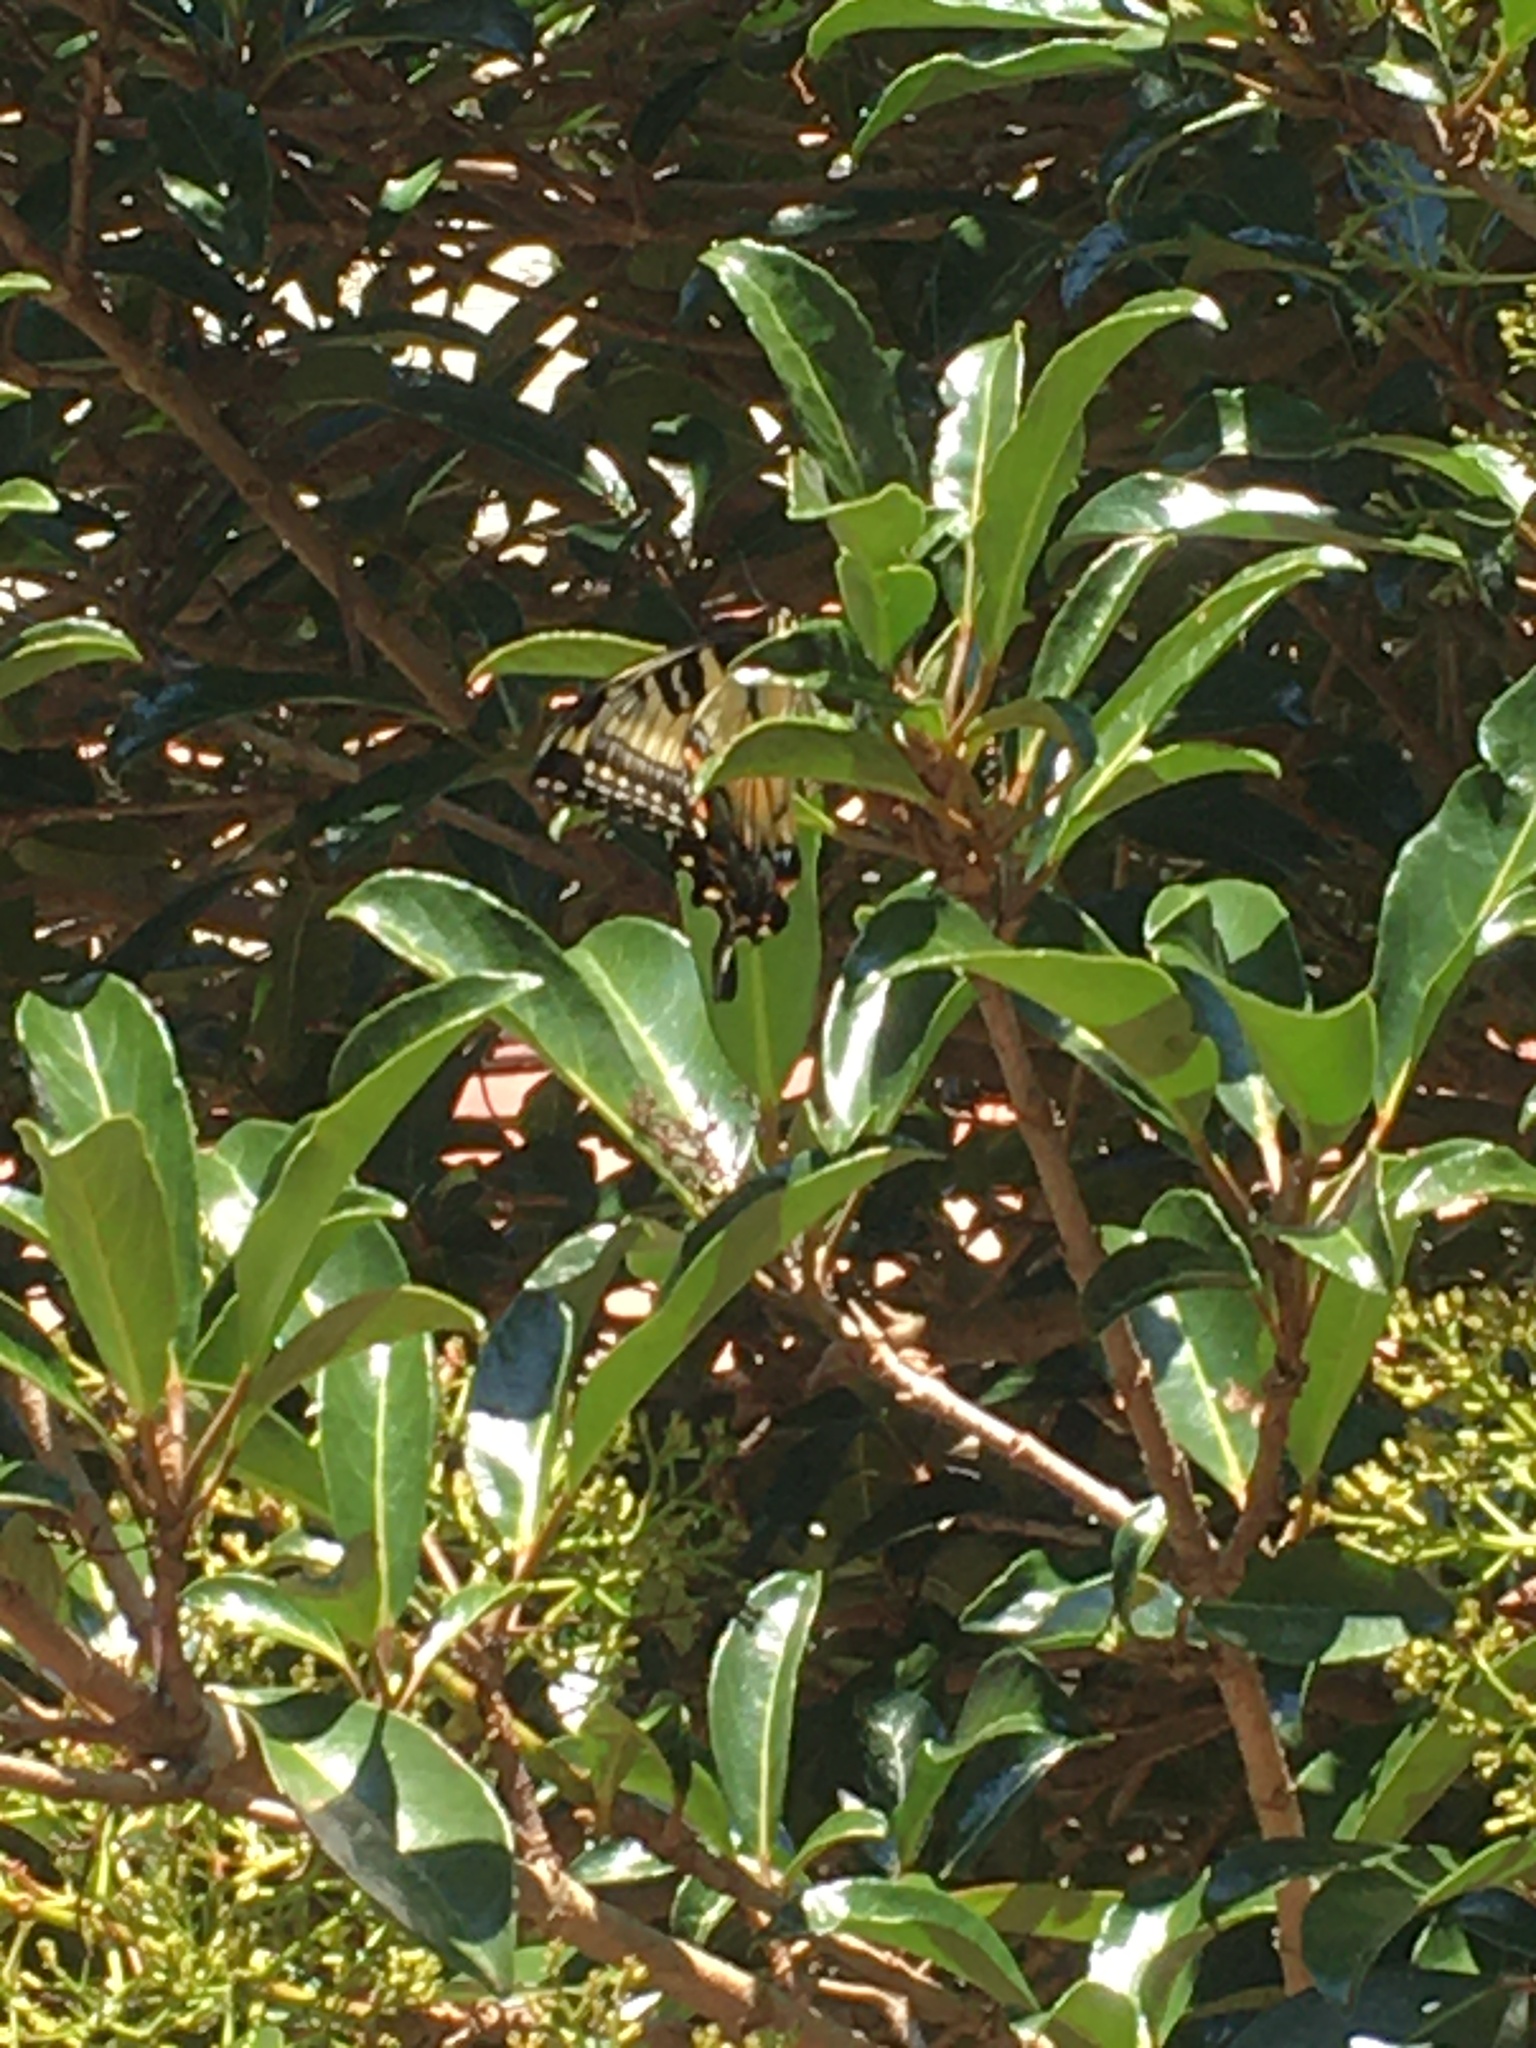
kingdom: Animalia
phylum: Arthropoda
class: Insecta
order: Lepidoptera
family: Papilionidae
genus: Papilio
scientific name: Papilio glaucus
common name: Tiger swallowtail
